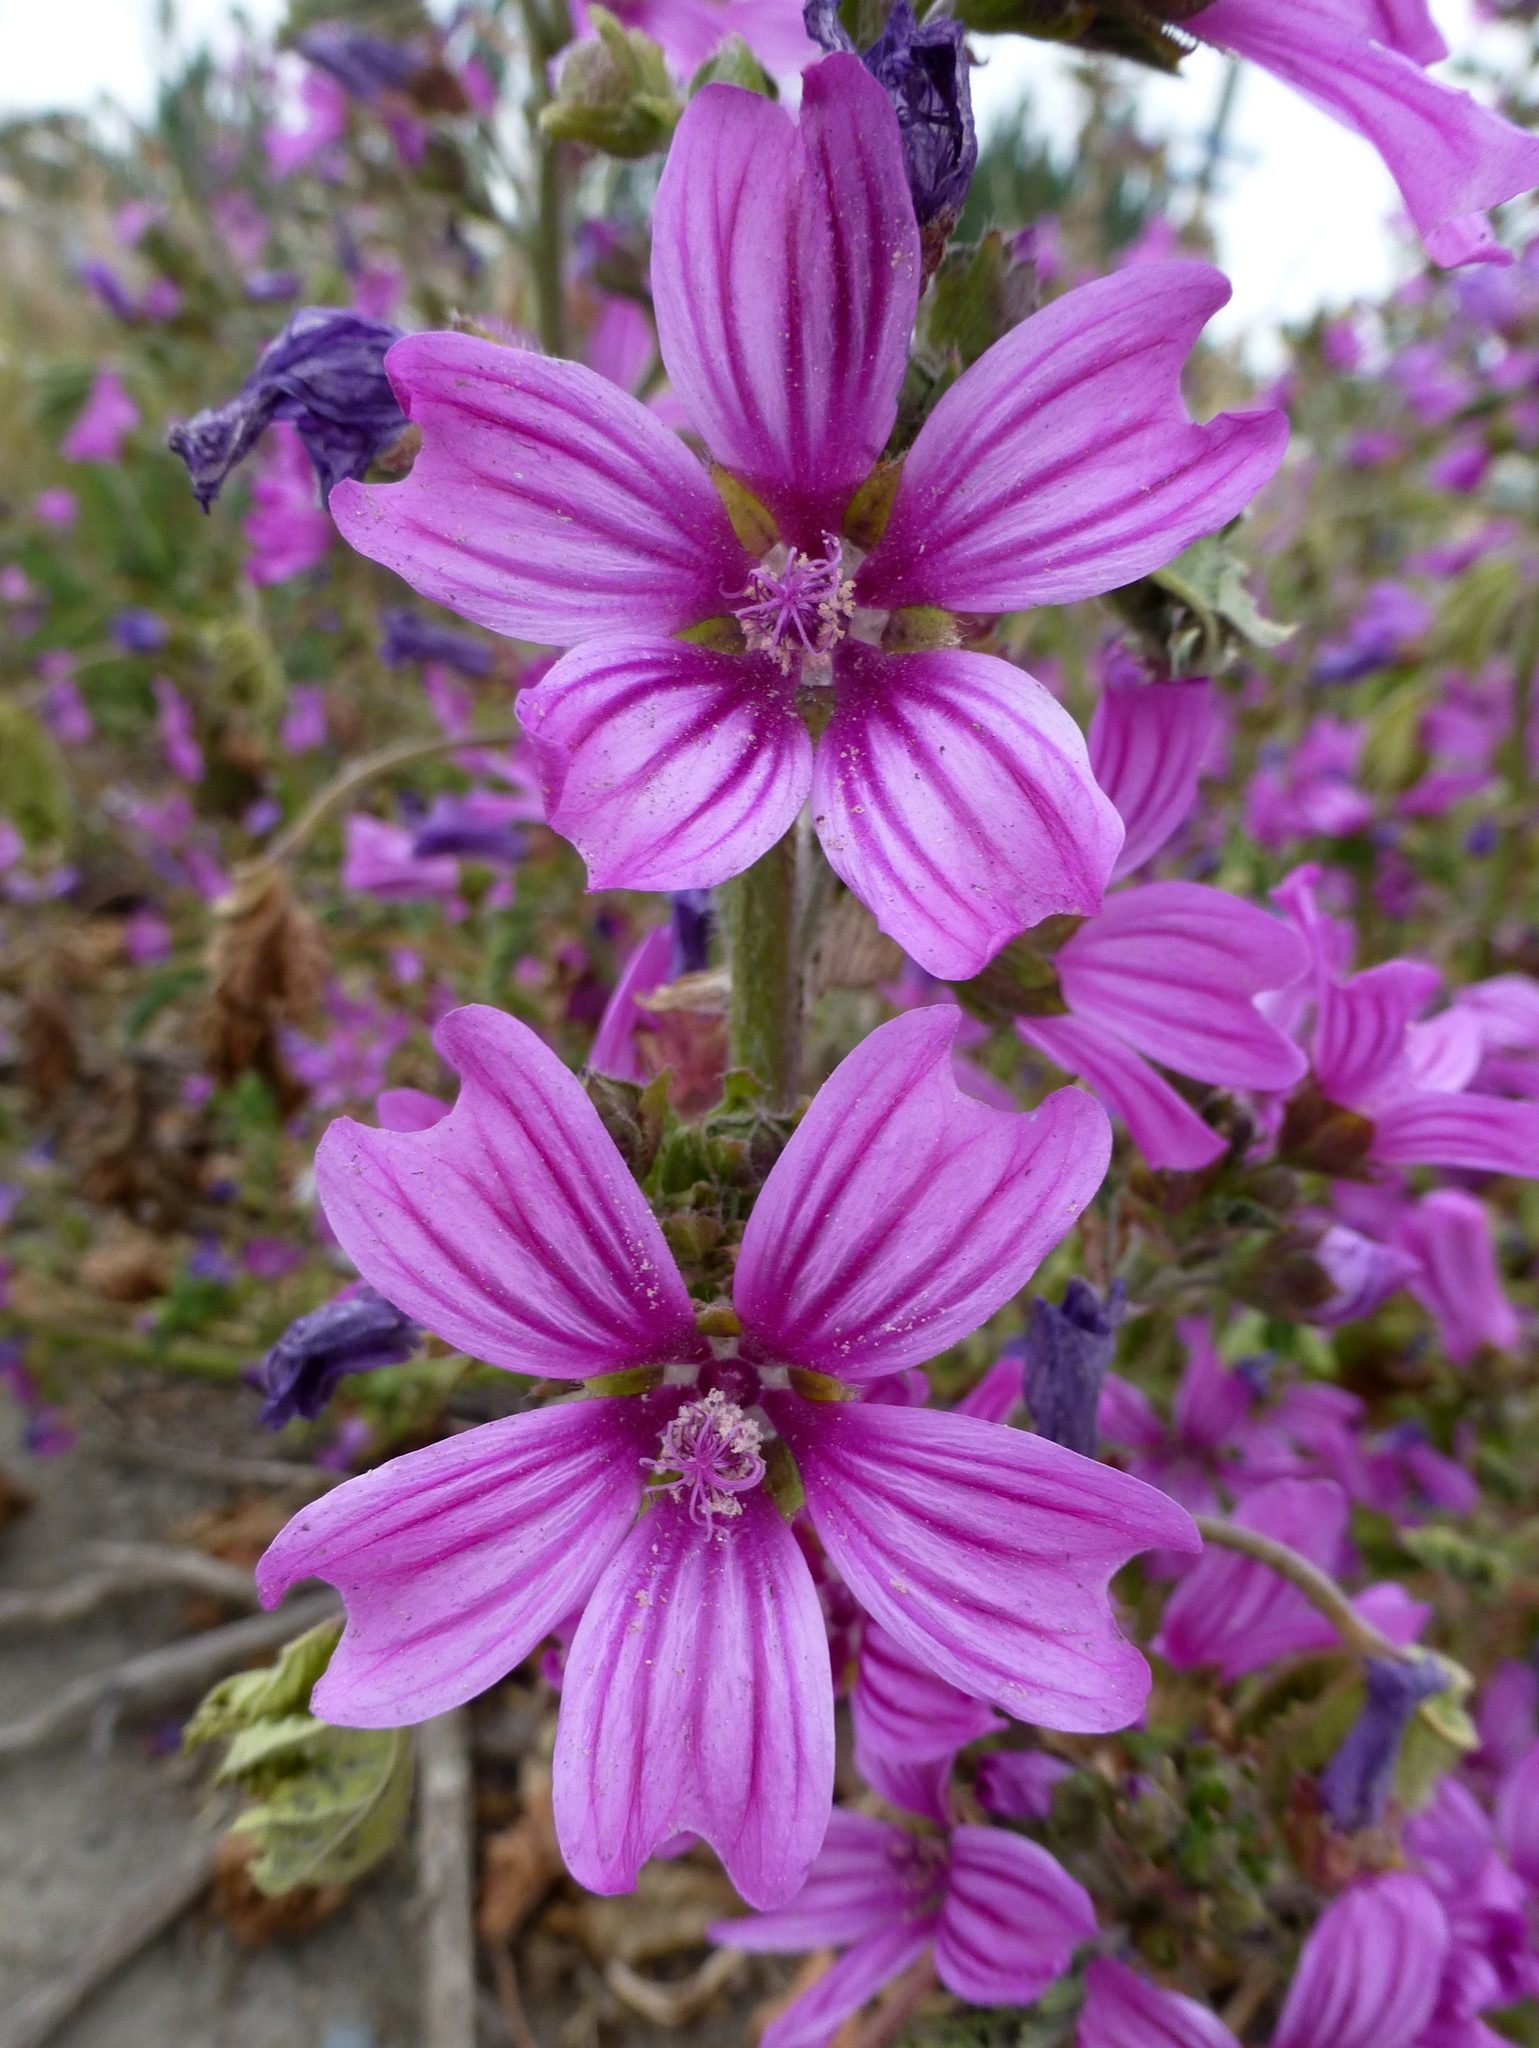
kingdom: Plantae
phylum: Tracheophyta
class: Magnoliopsida
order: Malvales
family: Malvaceae
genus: Malva
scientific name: Malva sylvestris
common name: Common mallow
